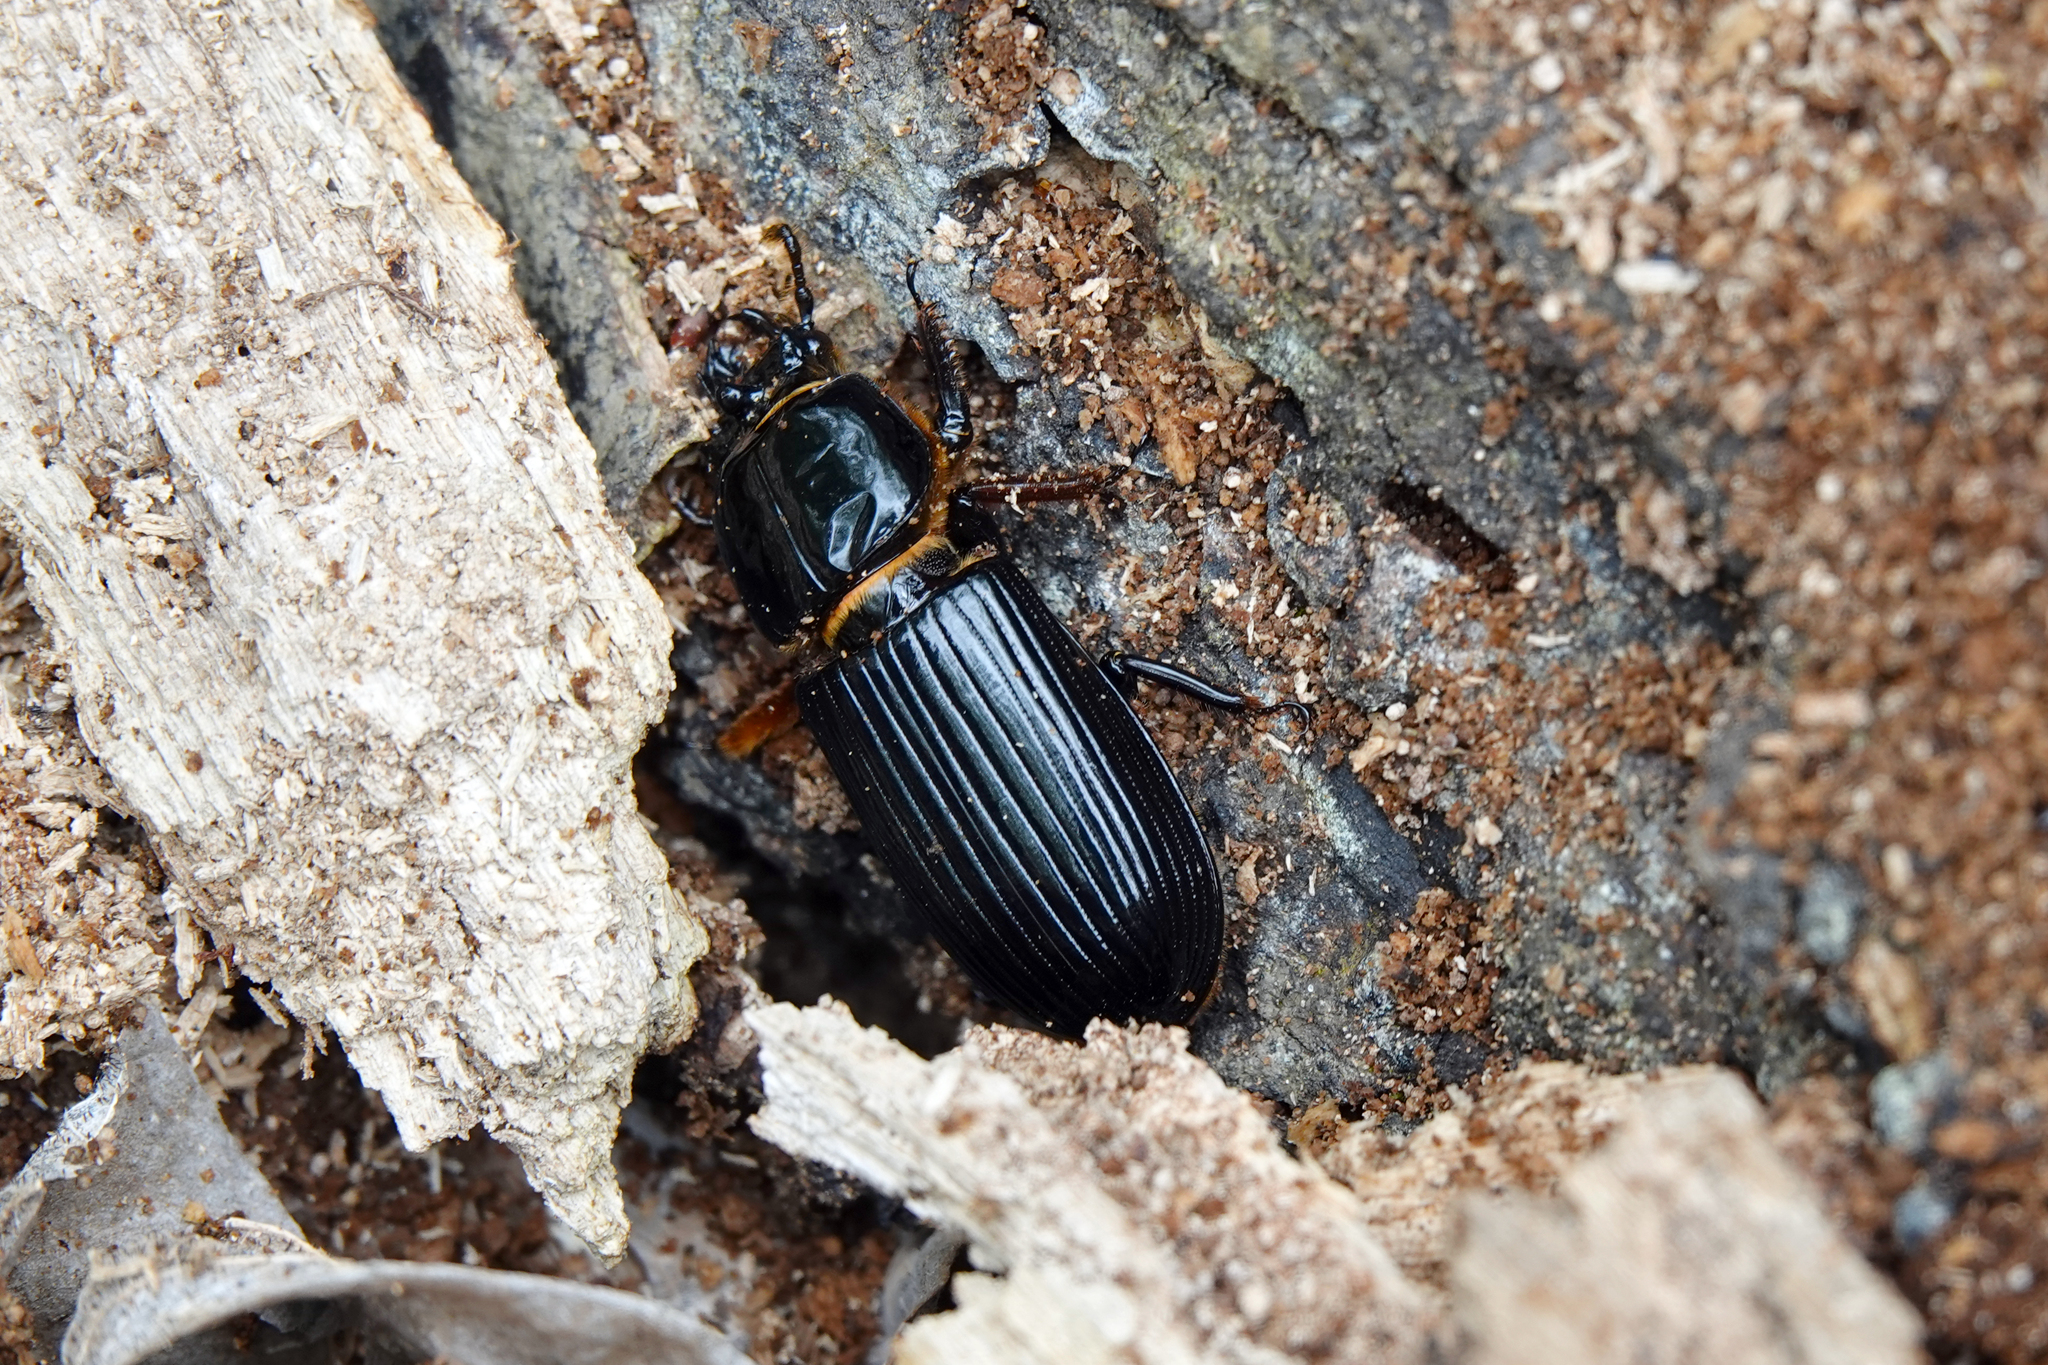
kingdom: Animalia
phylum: Arthropoda
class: Insecta
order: Coleoptera
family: Passalidae
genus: Odontotaenius
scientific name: Odontotaenius disjunctus
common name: Patent leather beetle
